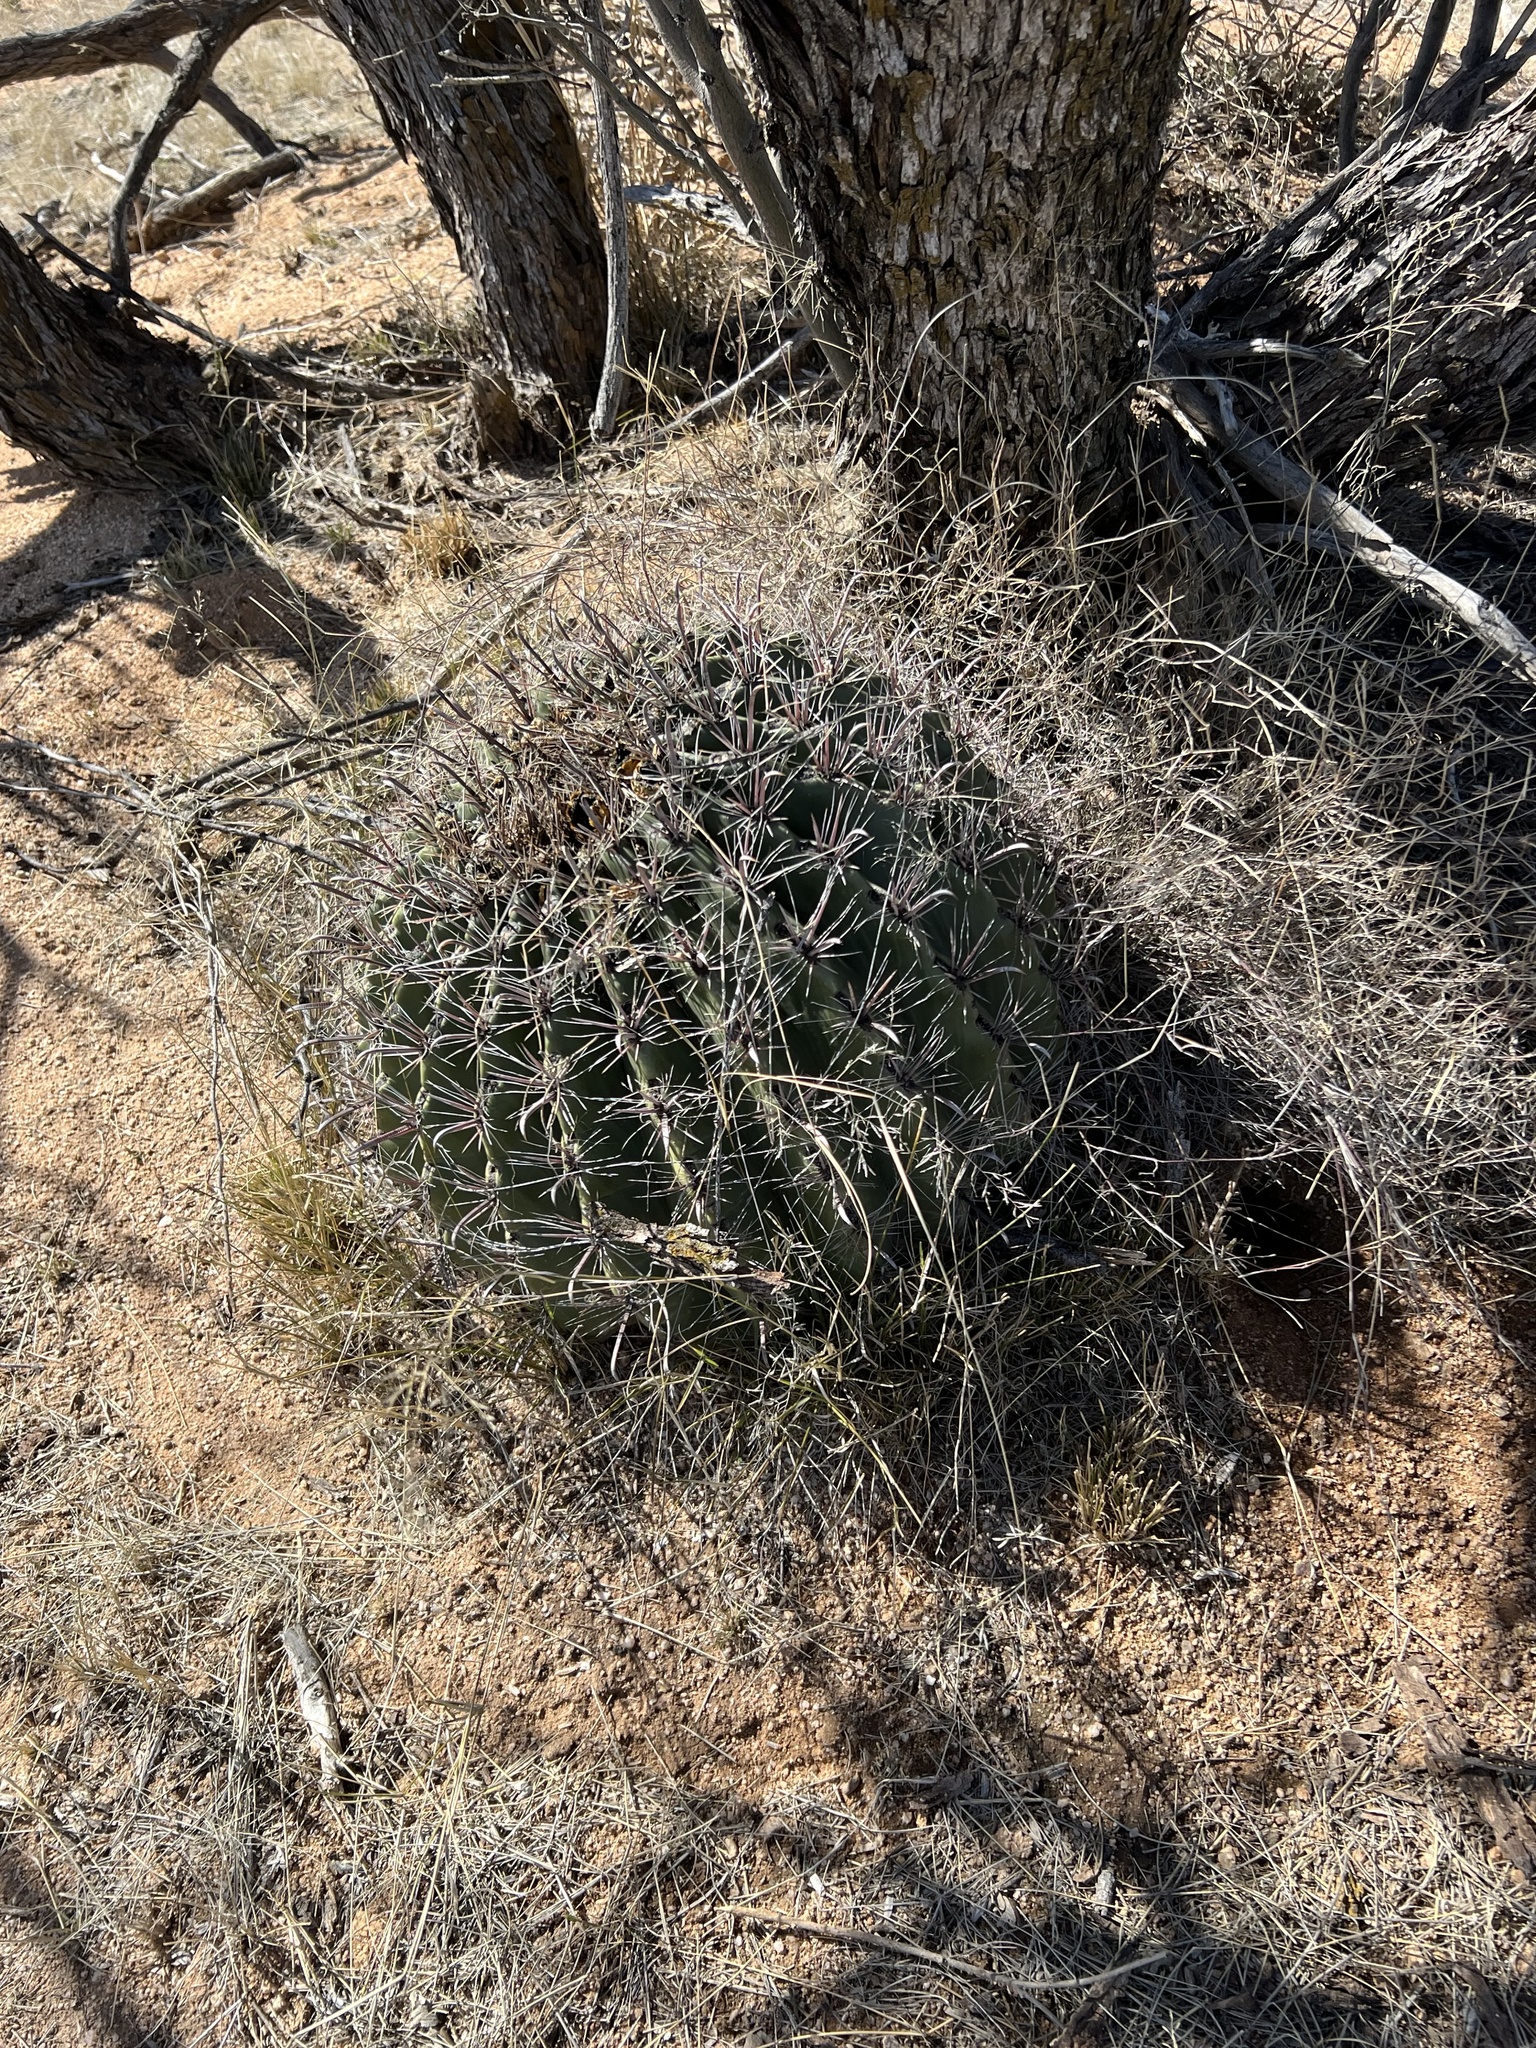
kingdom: Plantae
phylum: Tracheophyta
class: Magnoliopsida
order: Caryophyllales
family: Cactaceae
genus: Ferocactus
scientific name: Ferocactus wislizeni
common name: Candy barrel cactus
